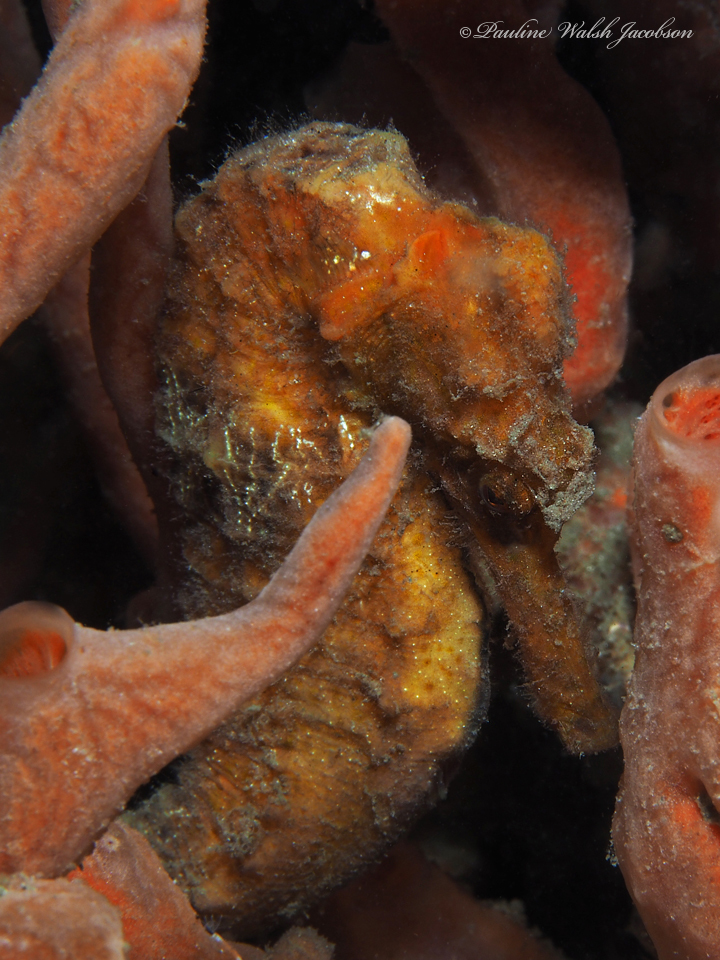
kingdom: Animalia
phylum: Chordata
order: Syngnathiformes
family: Syngnathidae
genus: Hippocampus
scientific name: Hippocampus reidi
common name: Slender seahorse
